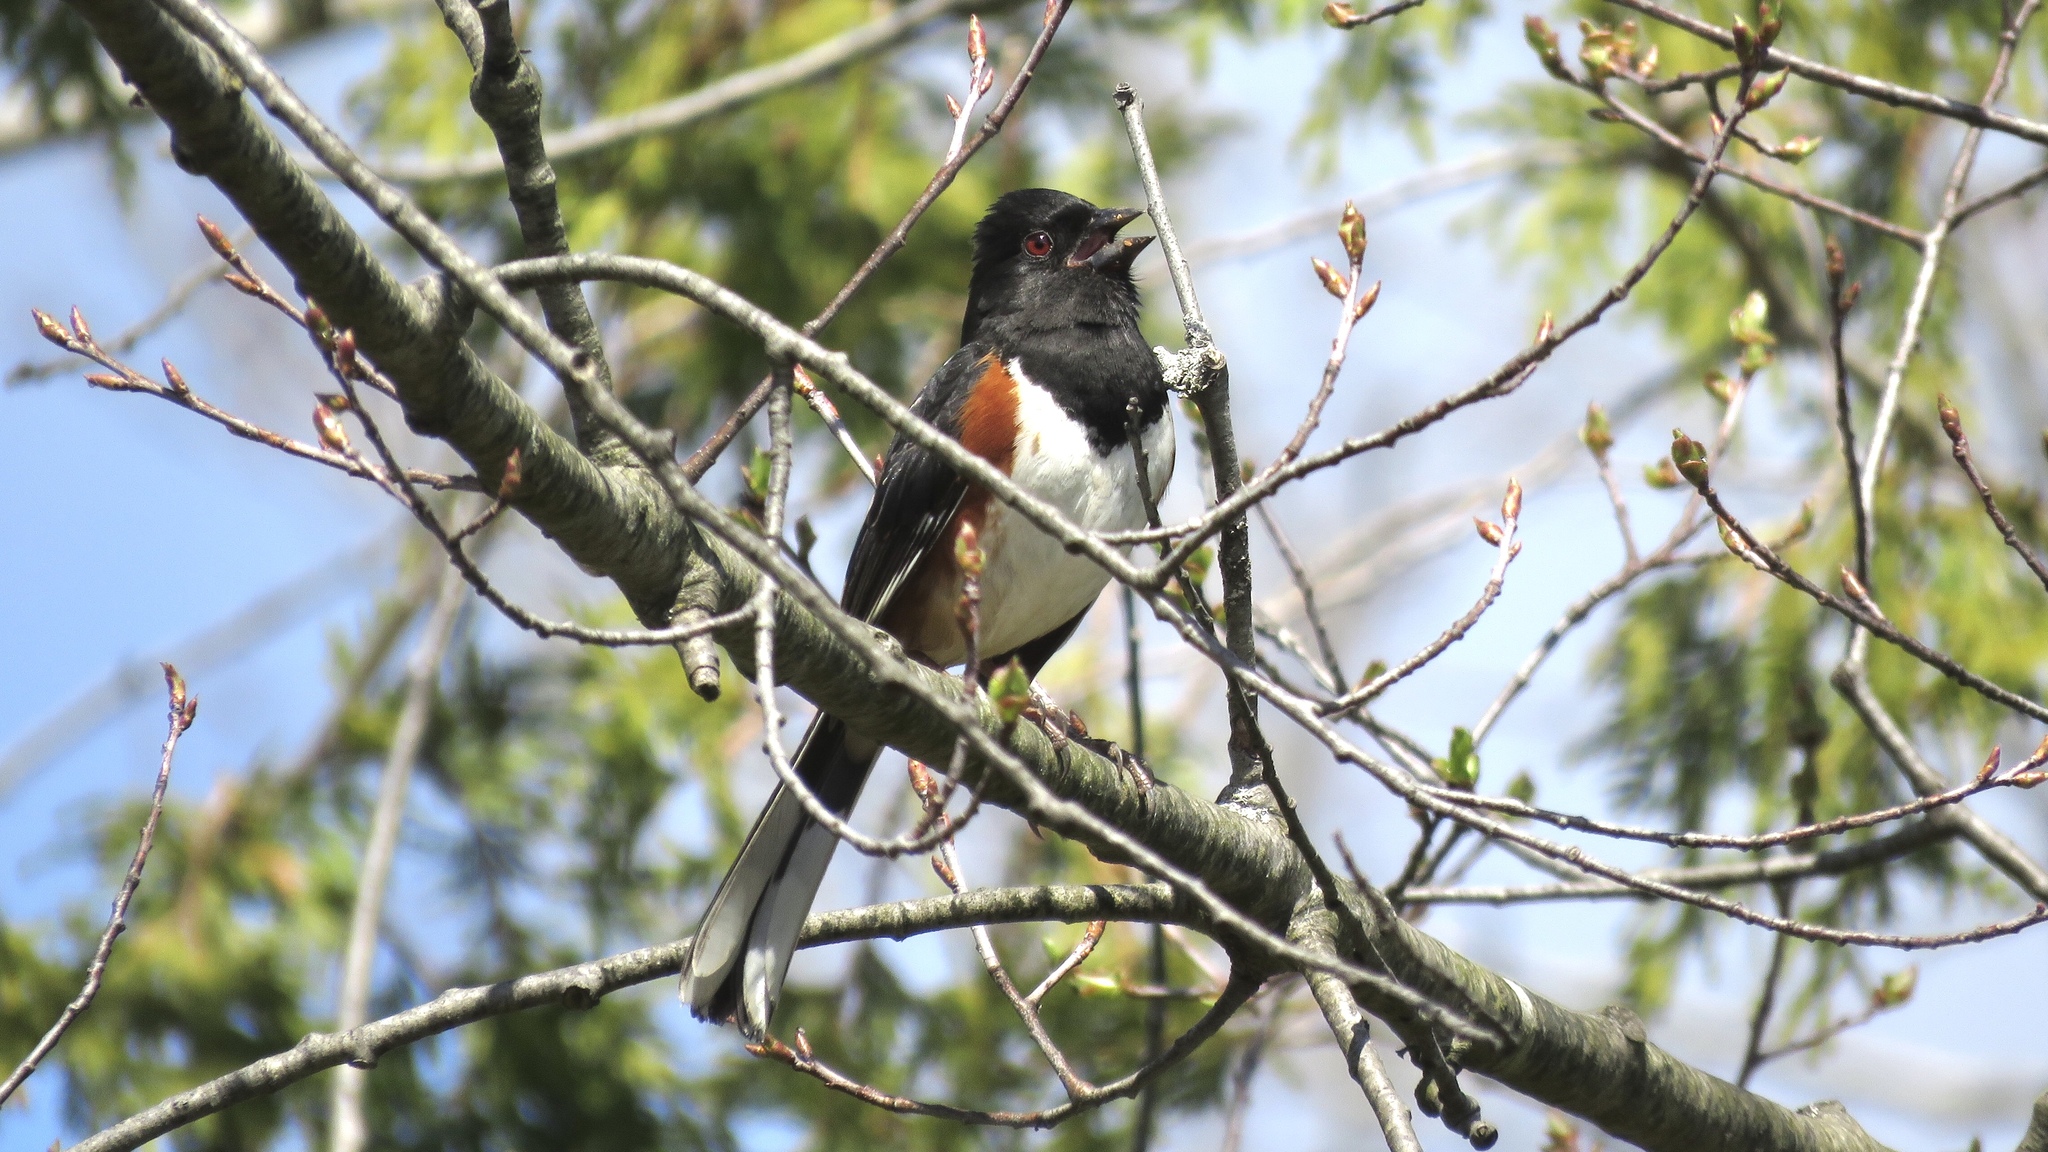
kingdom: Animalia
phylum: Chordata
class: Aves
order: Passeriformes
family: Passerellidae
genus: Pipilo
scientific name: Pipilo erythrophthalmus
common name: Eastern towhee
